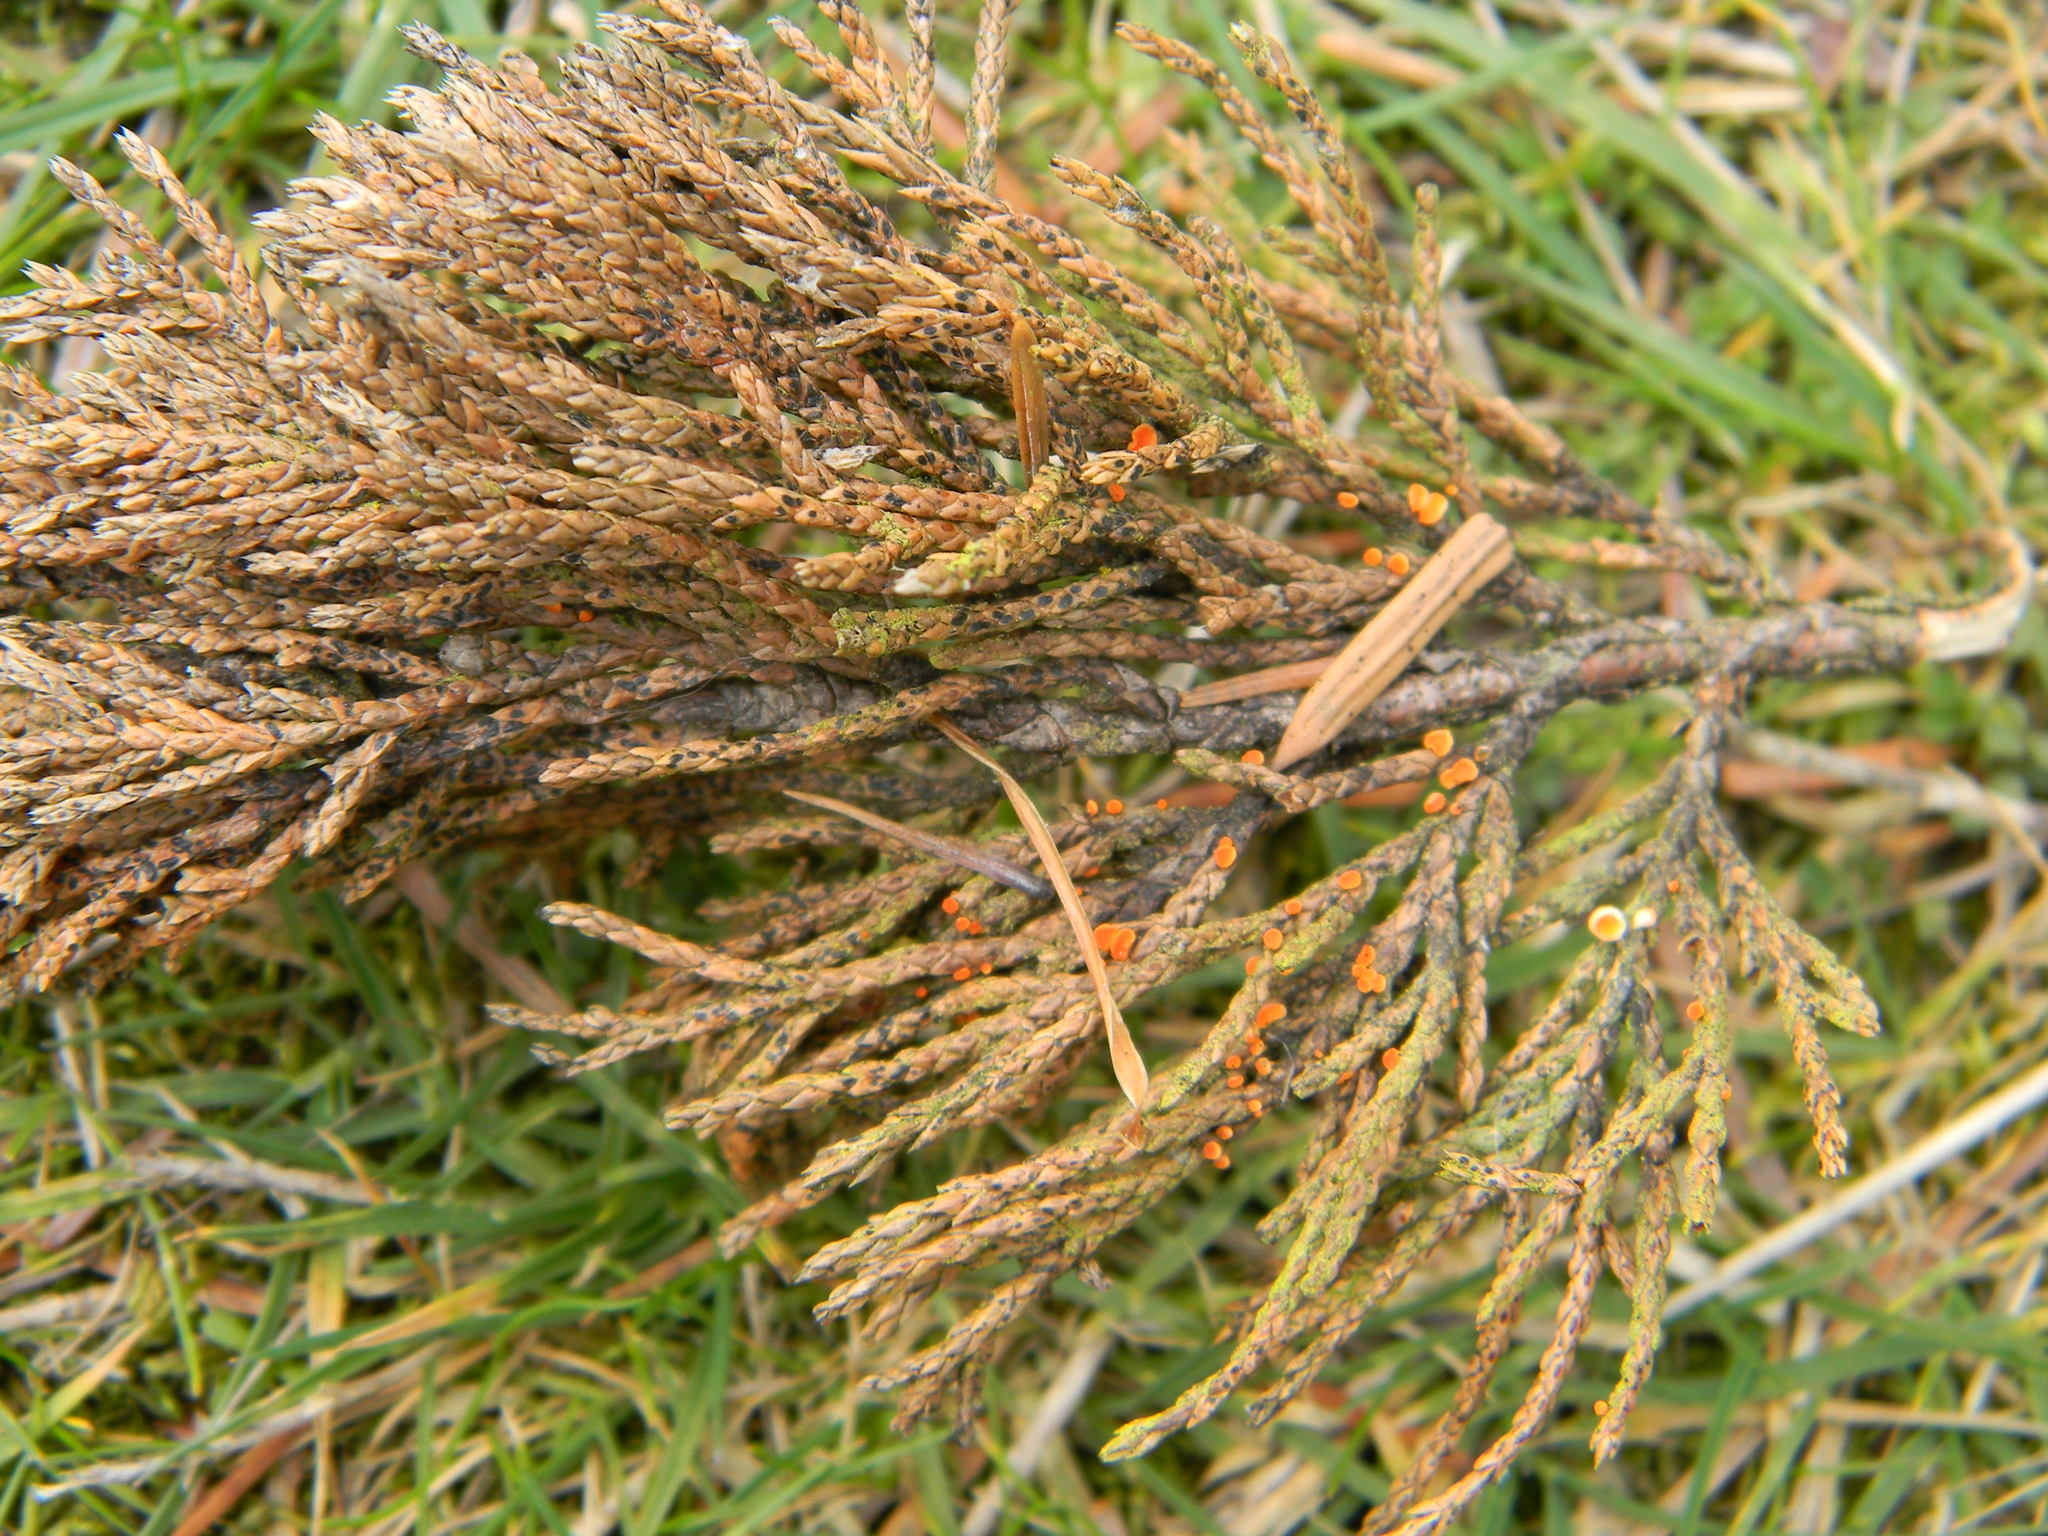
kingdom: Fungi
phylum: Ascomycota
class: Pezizomycetes
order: Pezizales
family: Sarcoscyphaceae
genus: Pithya
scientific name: Pithya cupressina
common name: Juniper disco
